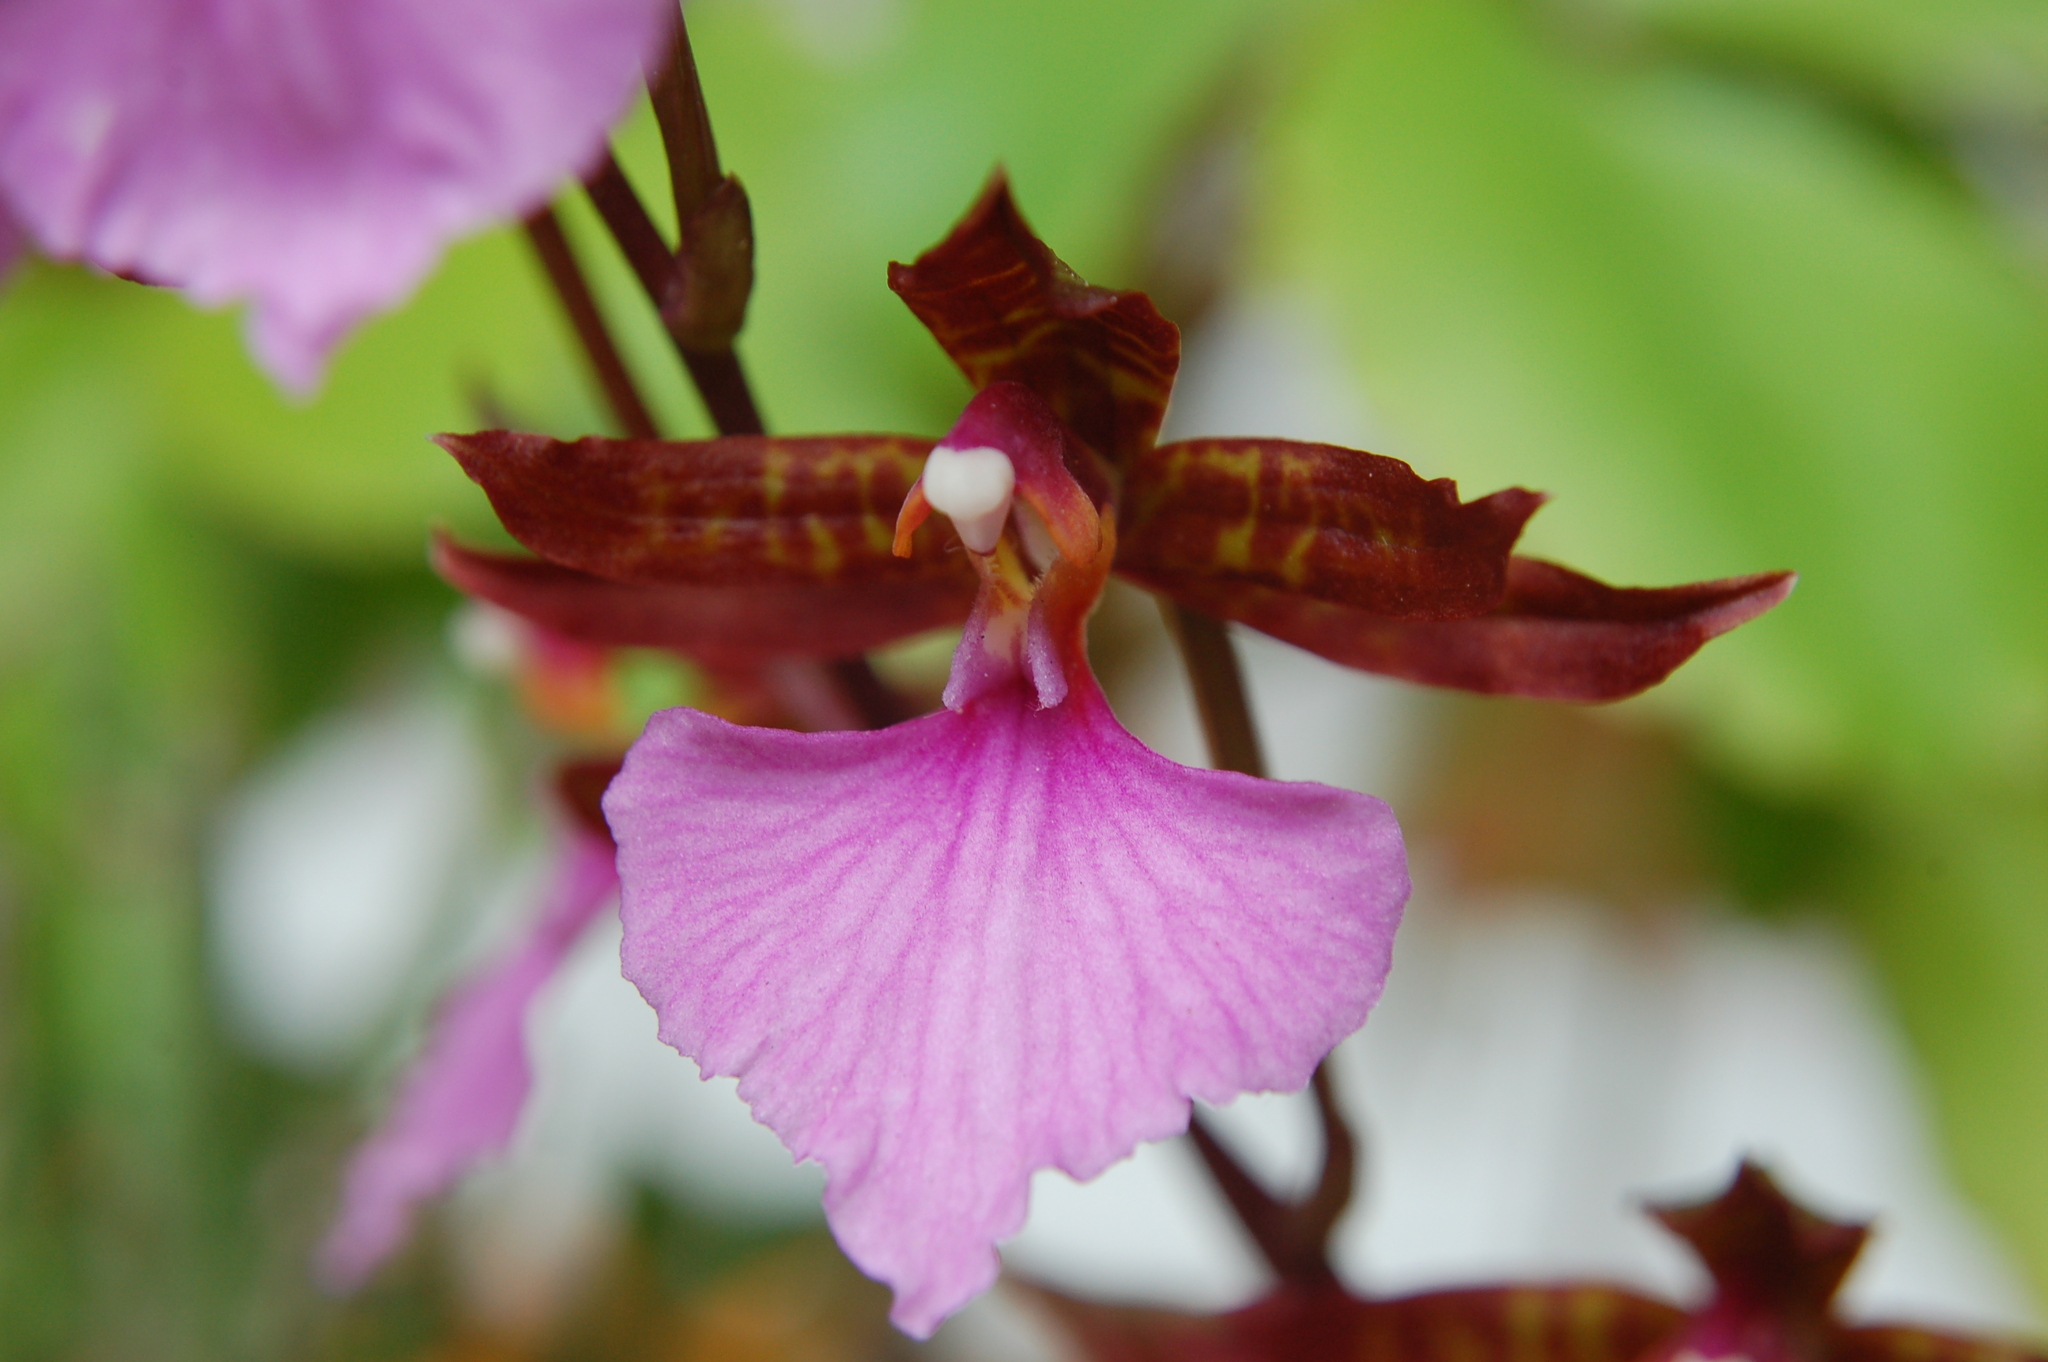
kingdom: Plantae
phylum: Tracheophyta
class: Liliopsida
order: Asparagales
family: Orchidaceae
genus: Rhynchostele
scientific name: Rhynchostele bictoniensis
